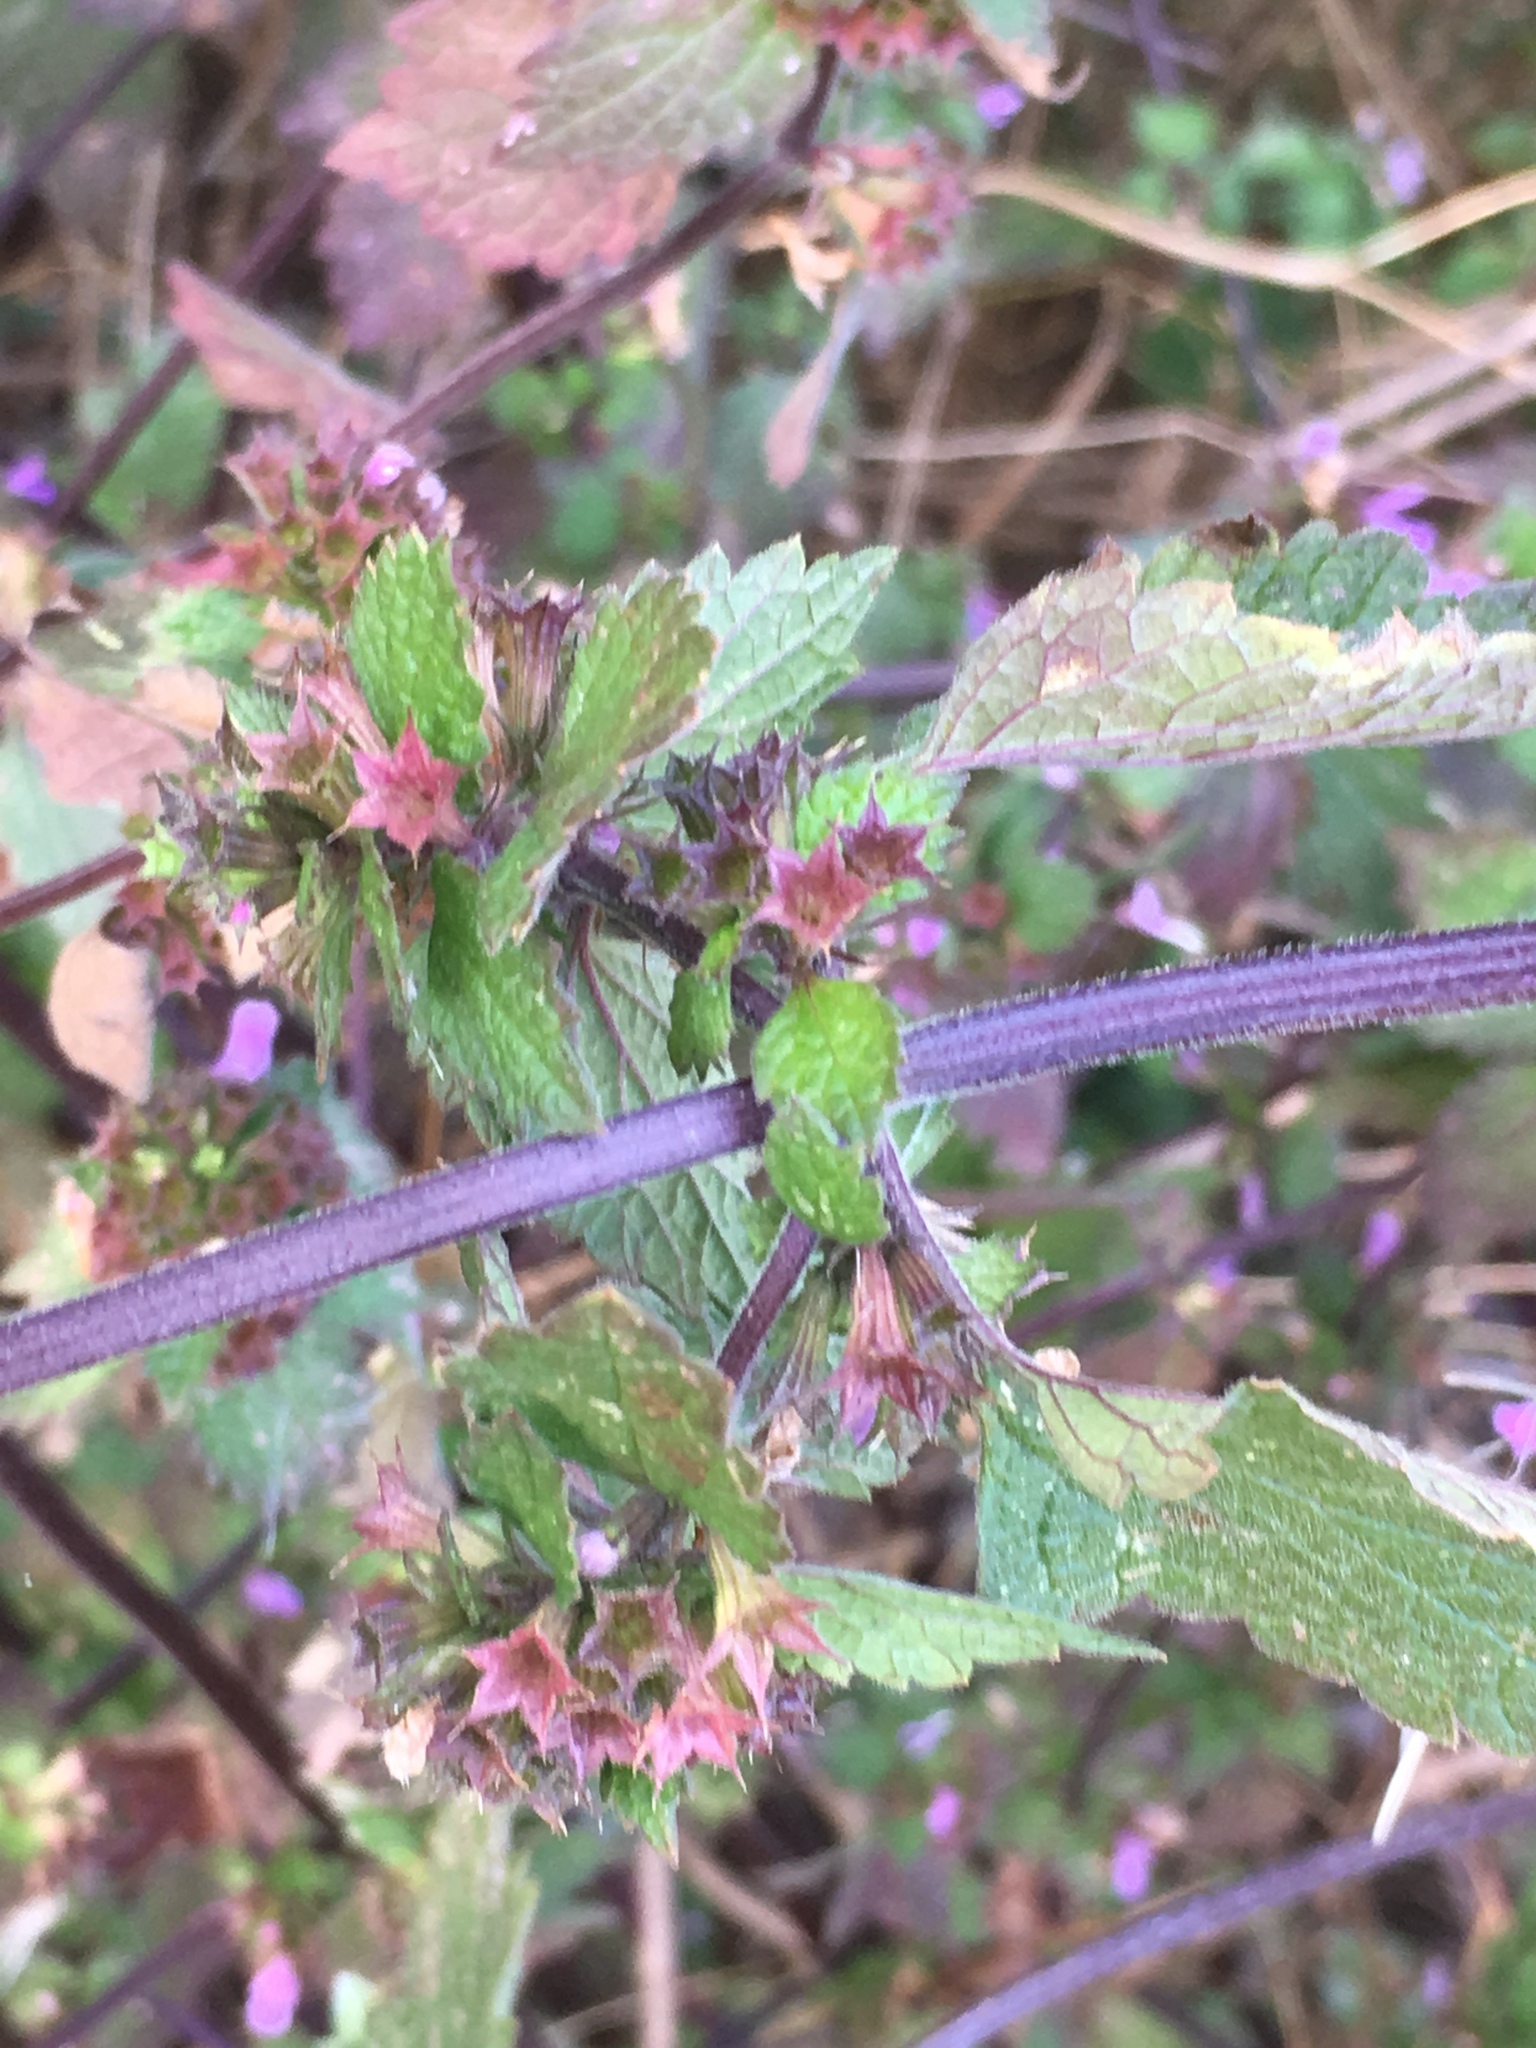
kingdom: Plantae
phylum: Tracheophyta
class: Magnoliopsida
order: Lamiales
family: Lamiaceae
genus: Ballota
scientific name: Ballota nigra
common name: Black horehound
